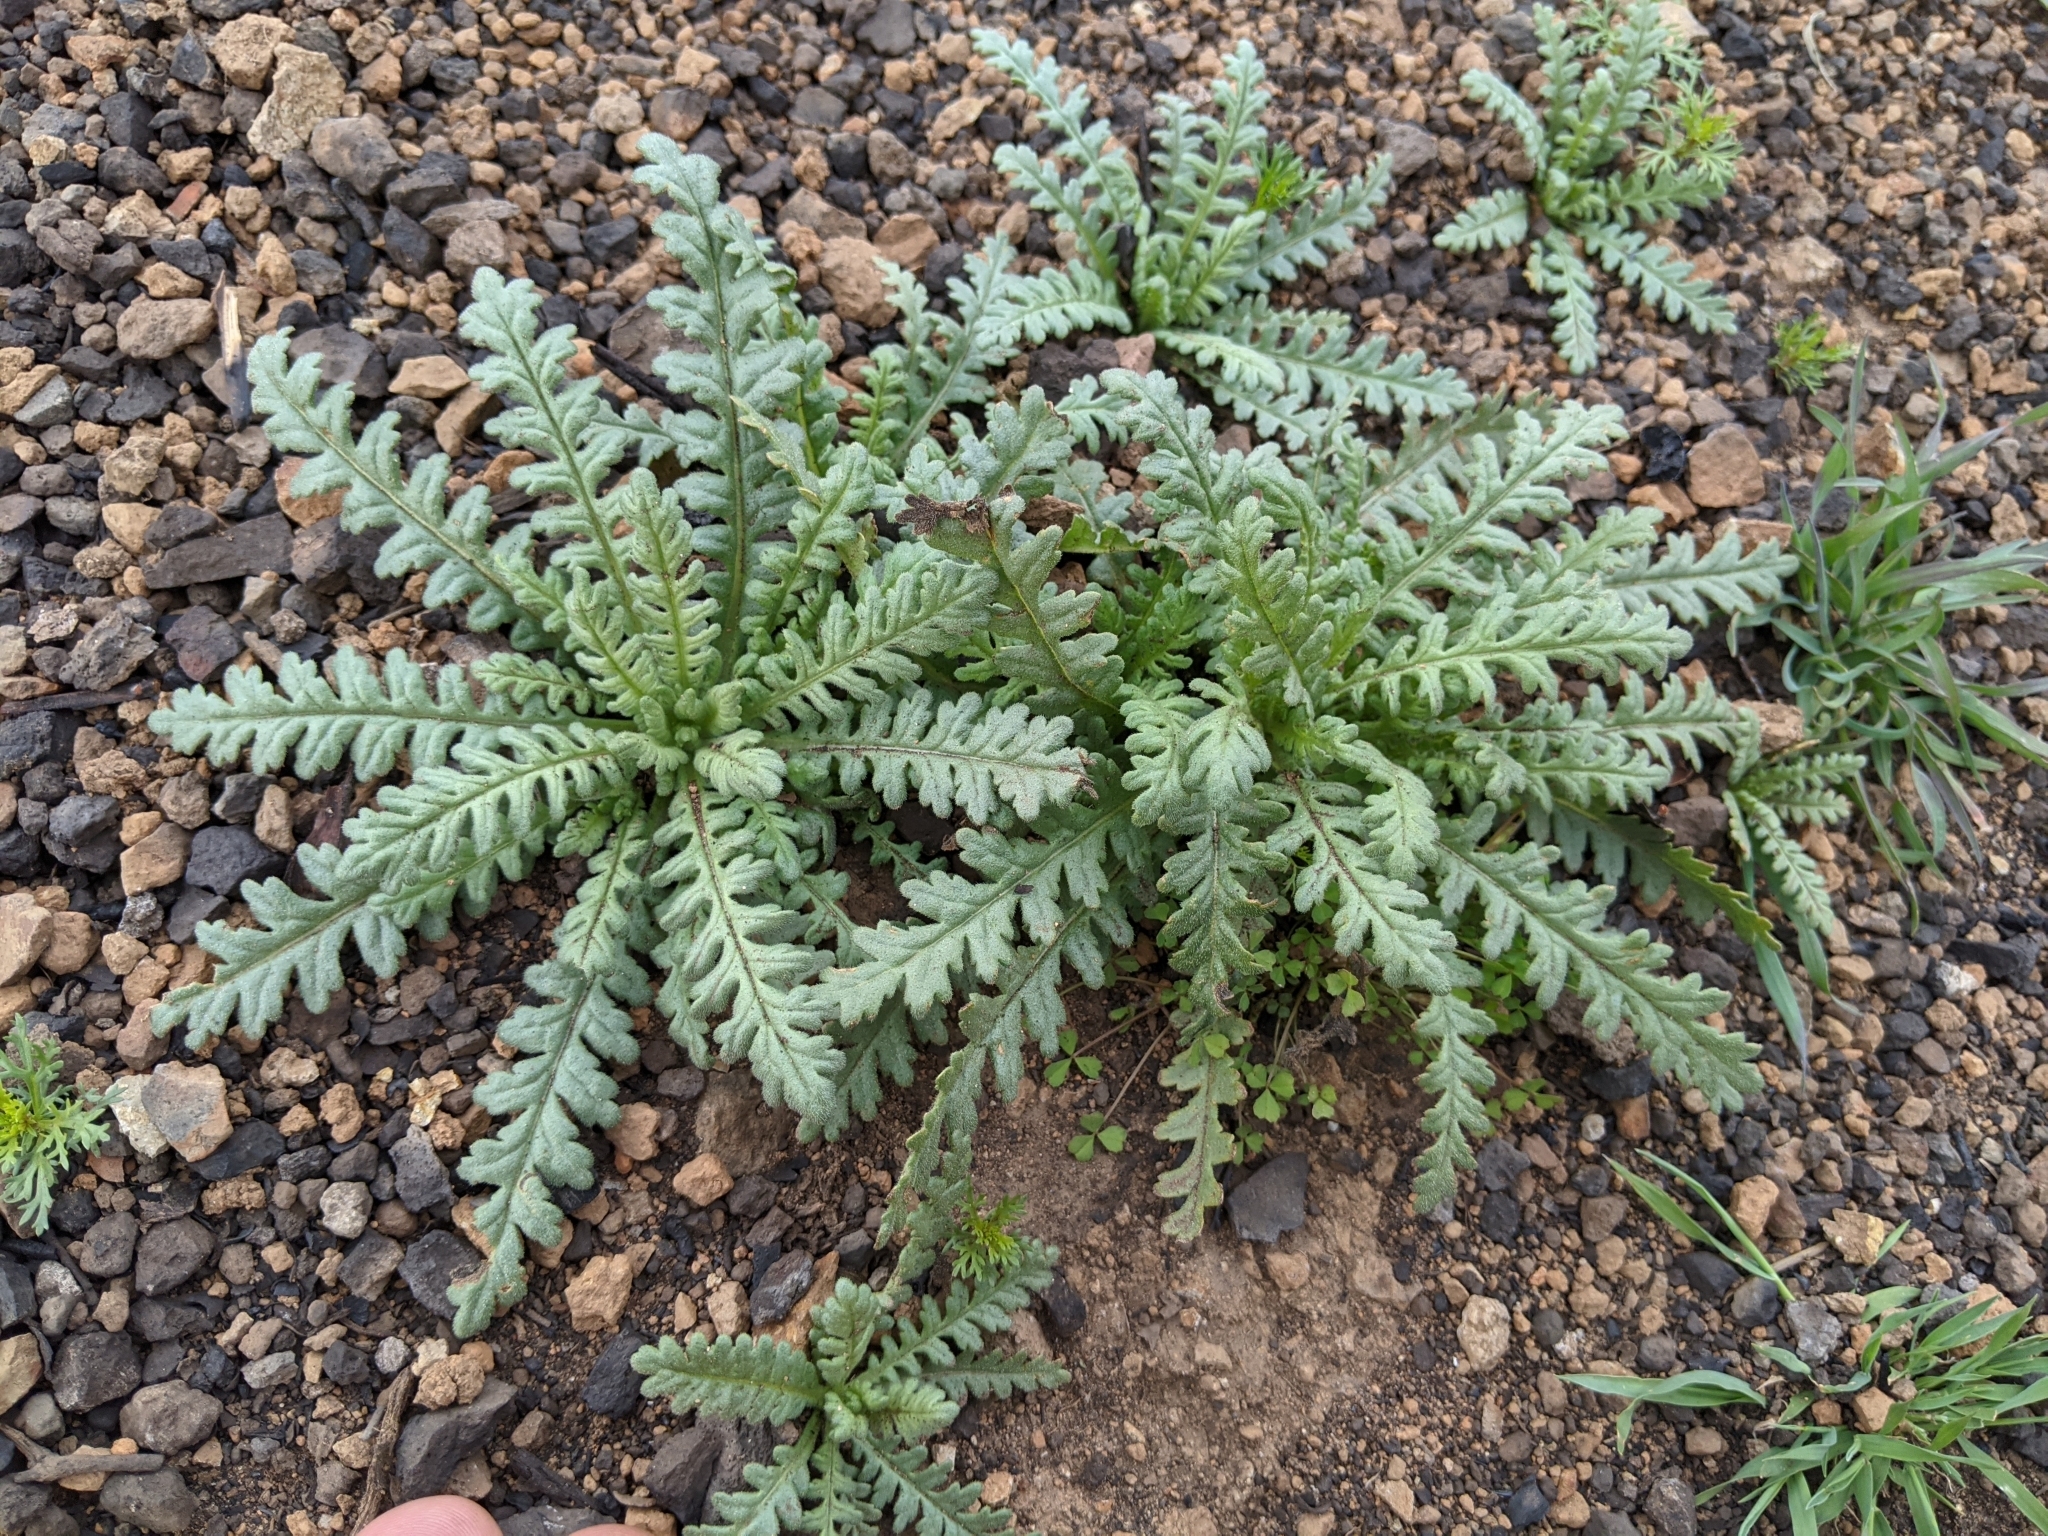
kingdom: Plantae
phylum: Tracheophyta
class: Magnoliopsida
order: Boraginales
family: Hydrophyllaceae
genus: Emmenanthe
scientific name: Emmenanthe penduliflora
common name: Whispering-bells
